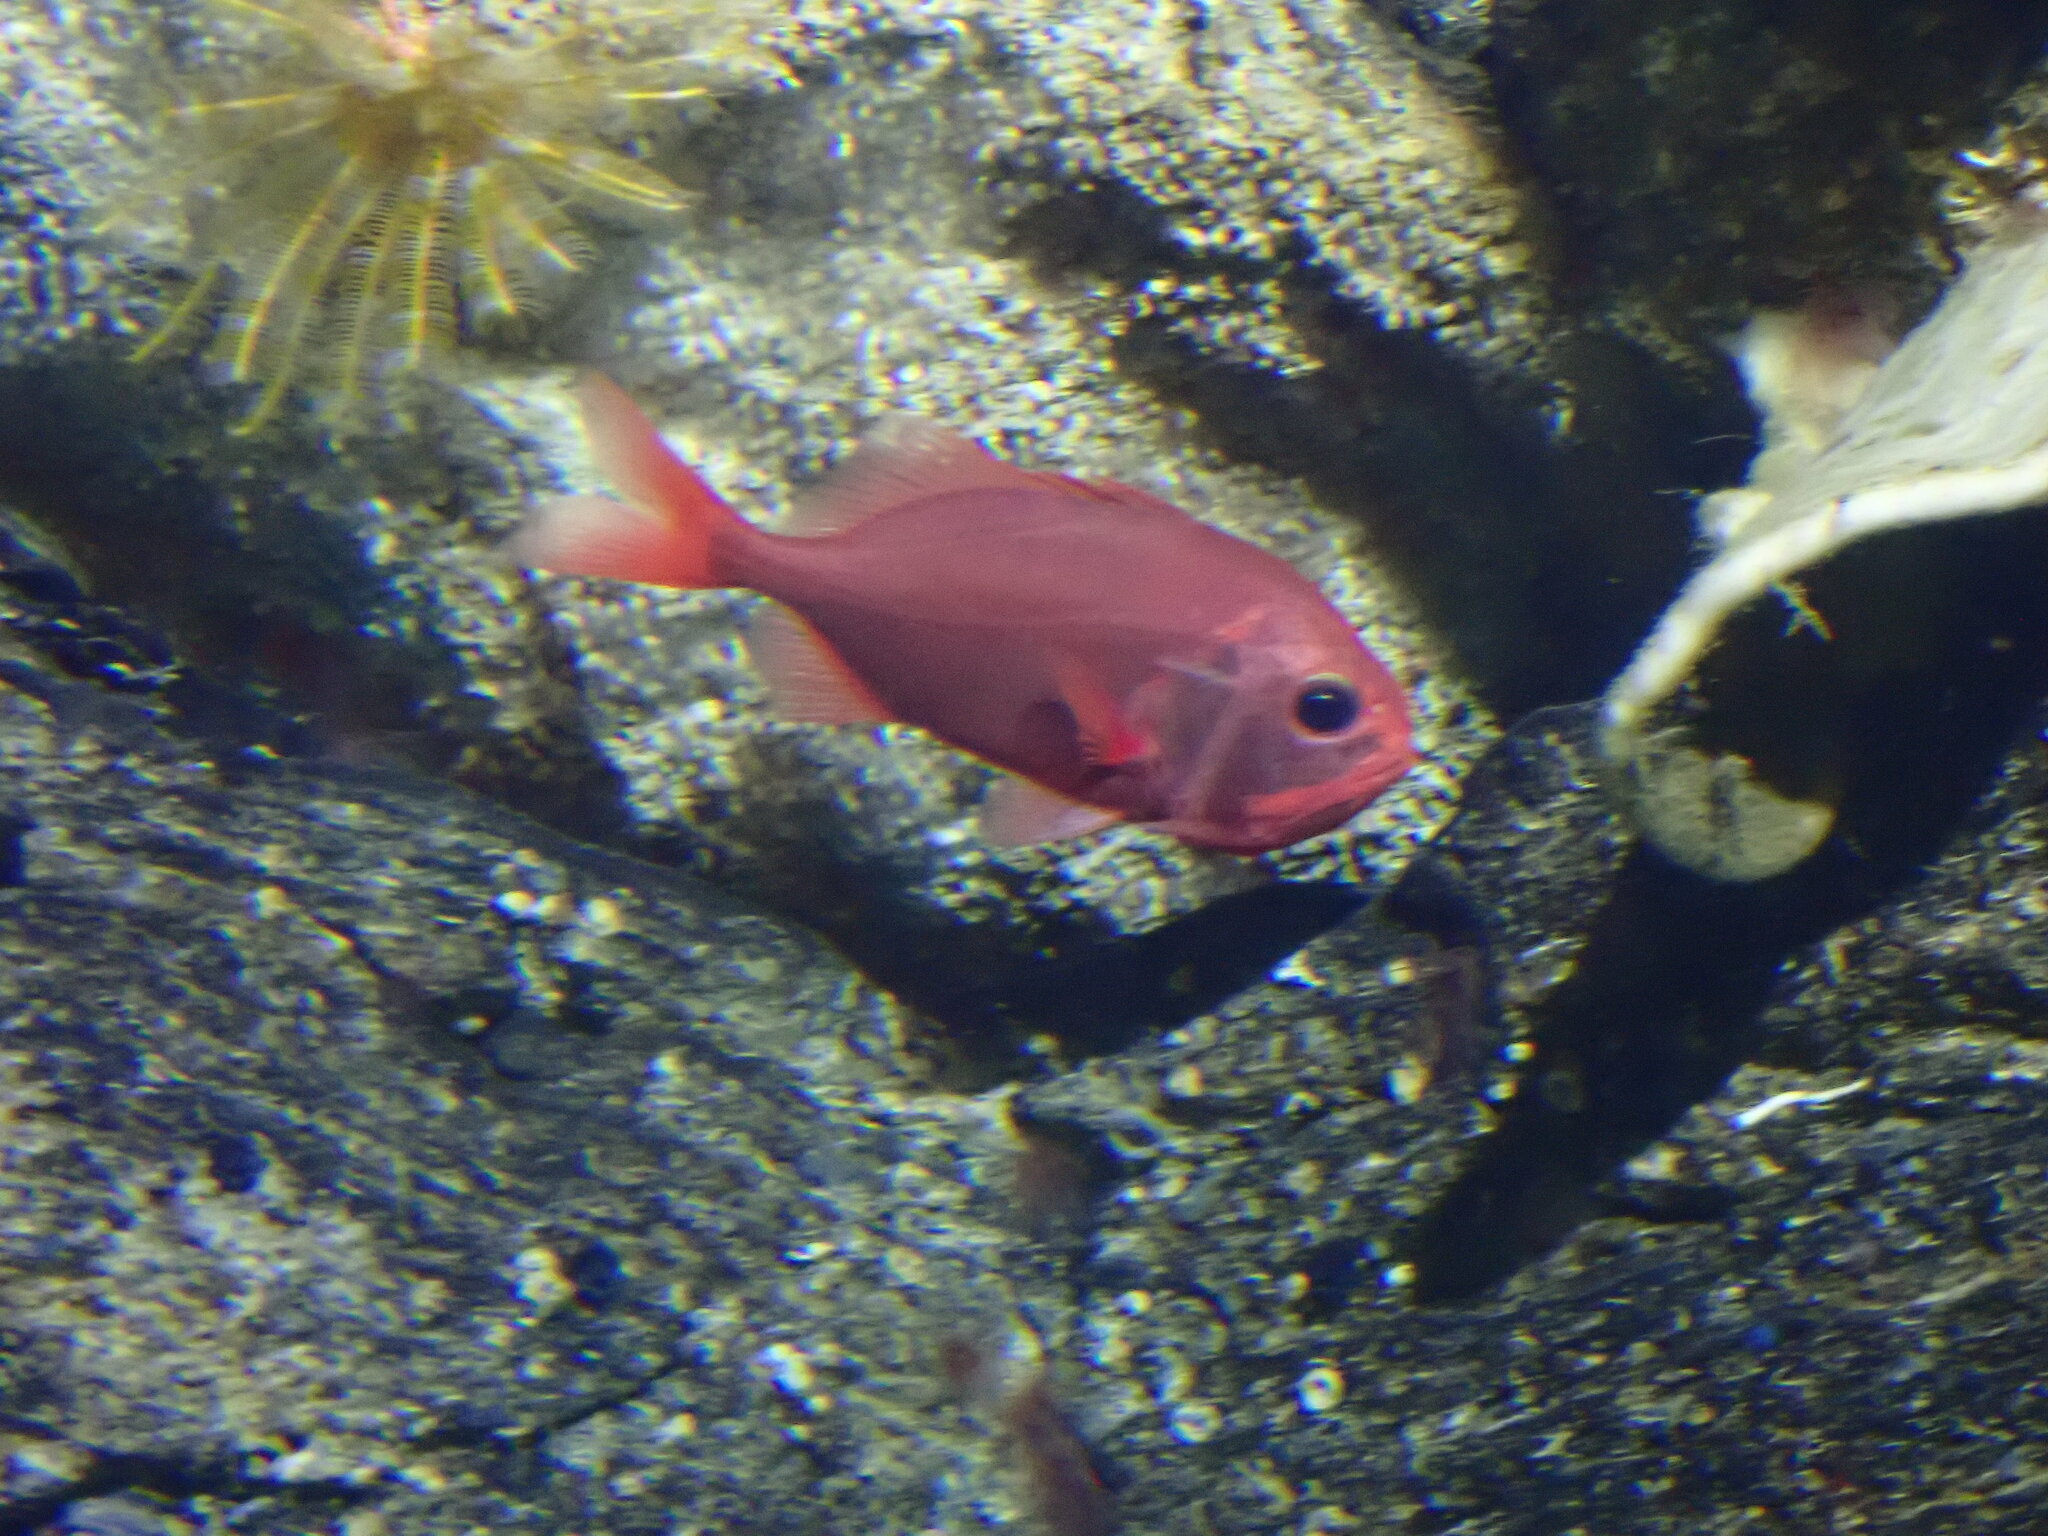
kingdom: Animalia
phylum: Chordata
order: Beryciformes
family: Trachichthyidae
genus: Gephyroberyx
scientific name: Gephyroberyx darwinii
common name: Big roughy
